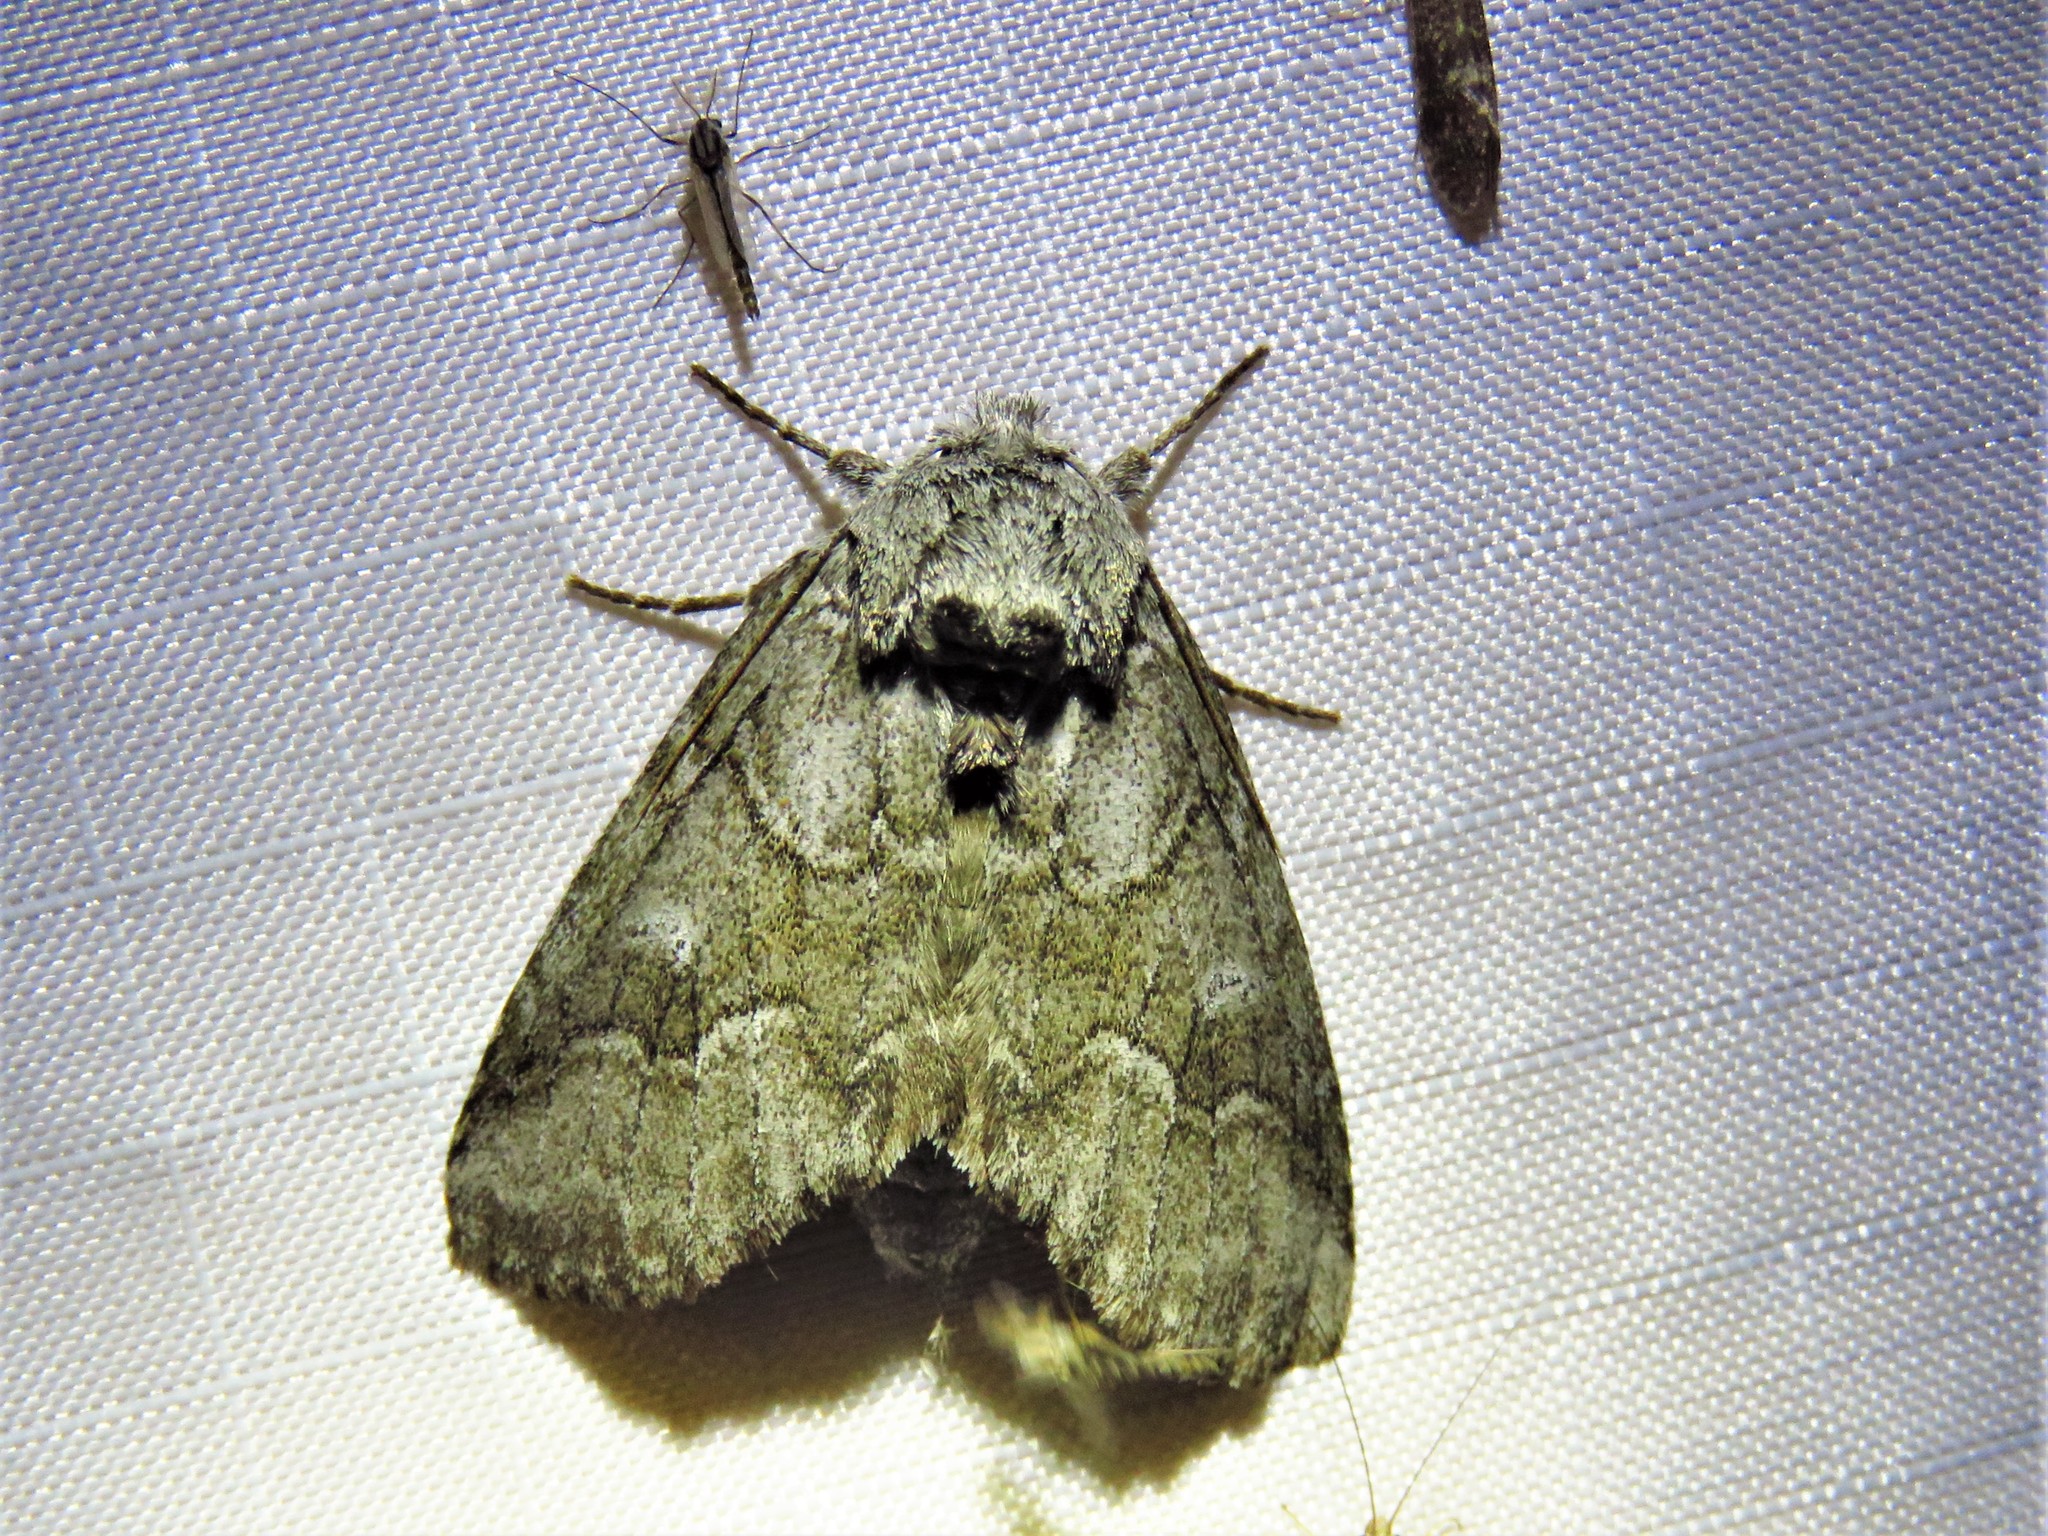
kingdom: Animalia
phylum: Arthropoda
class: Insecta
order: Lepidoptera
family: Notodontidae
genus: Lochmaeus
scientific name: Lochmaeus bilineata
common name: Double-lined prominent
